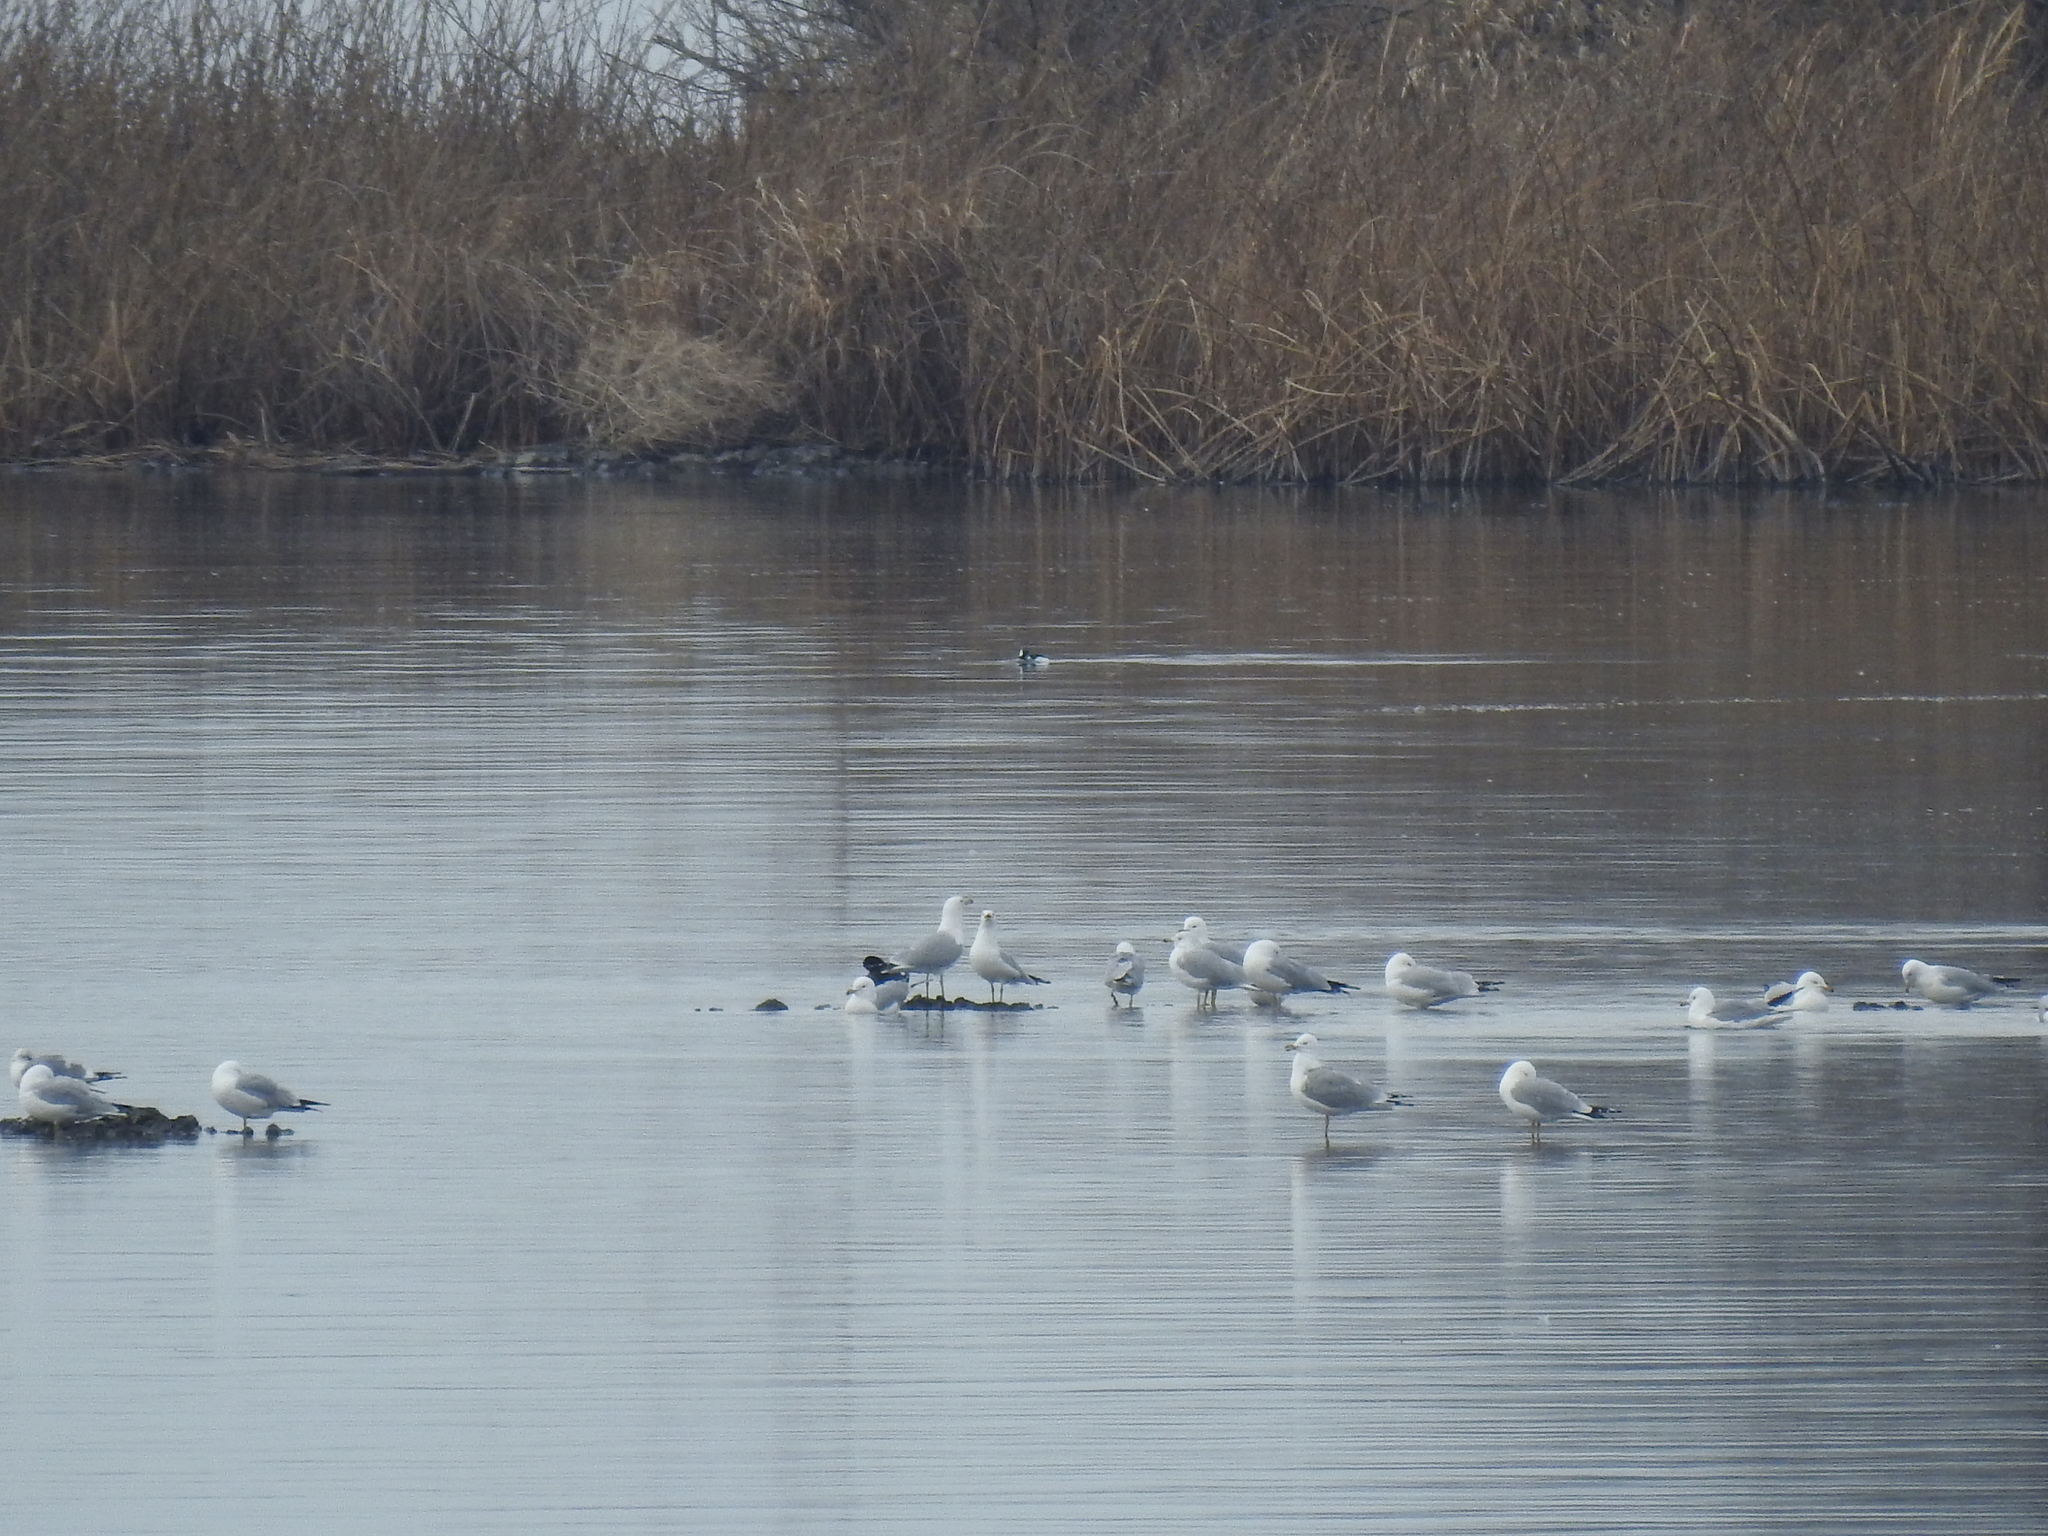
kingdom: Animalia
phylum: Chordata
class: Aves
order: Charadriiformes
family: Laridae
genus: Larus
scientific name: Larus delawarensis
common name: Ring-billed gull
